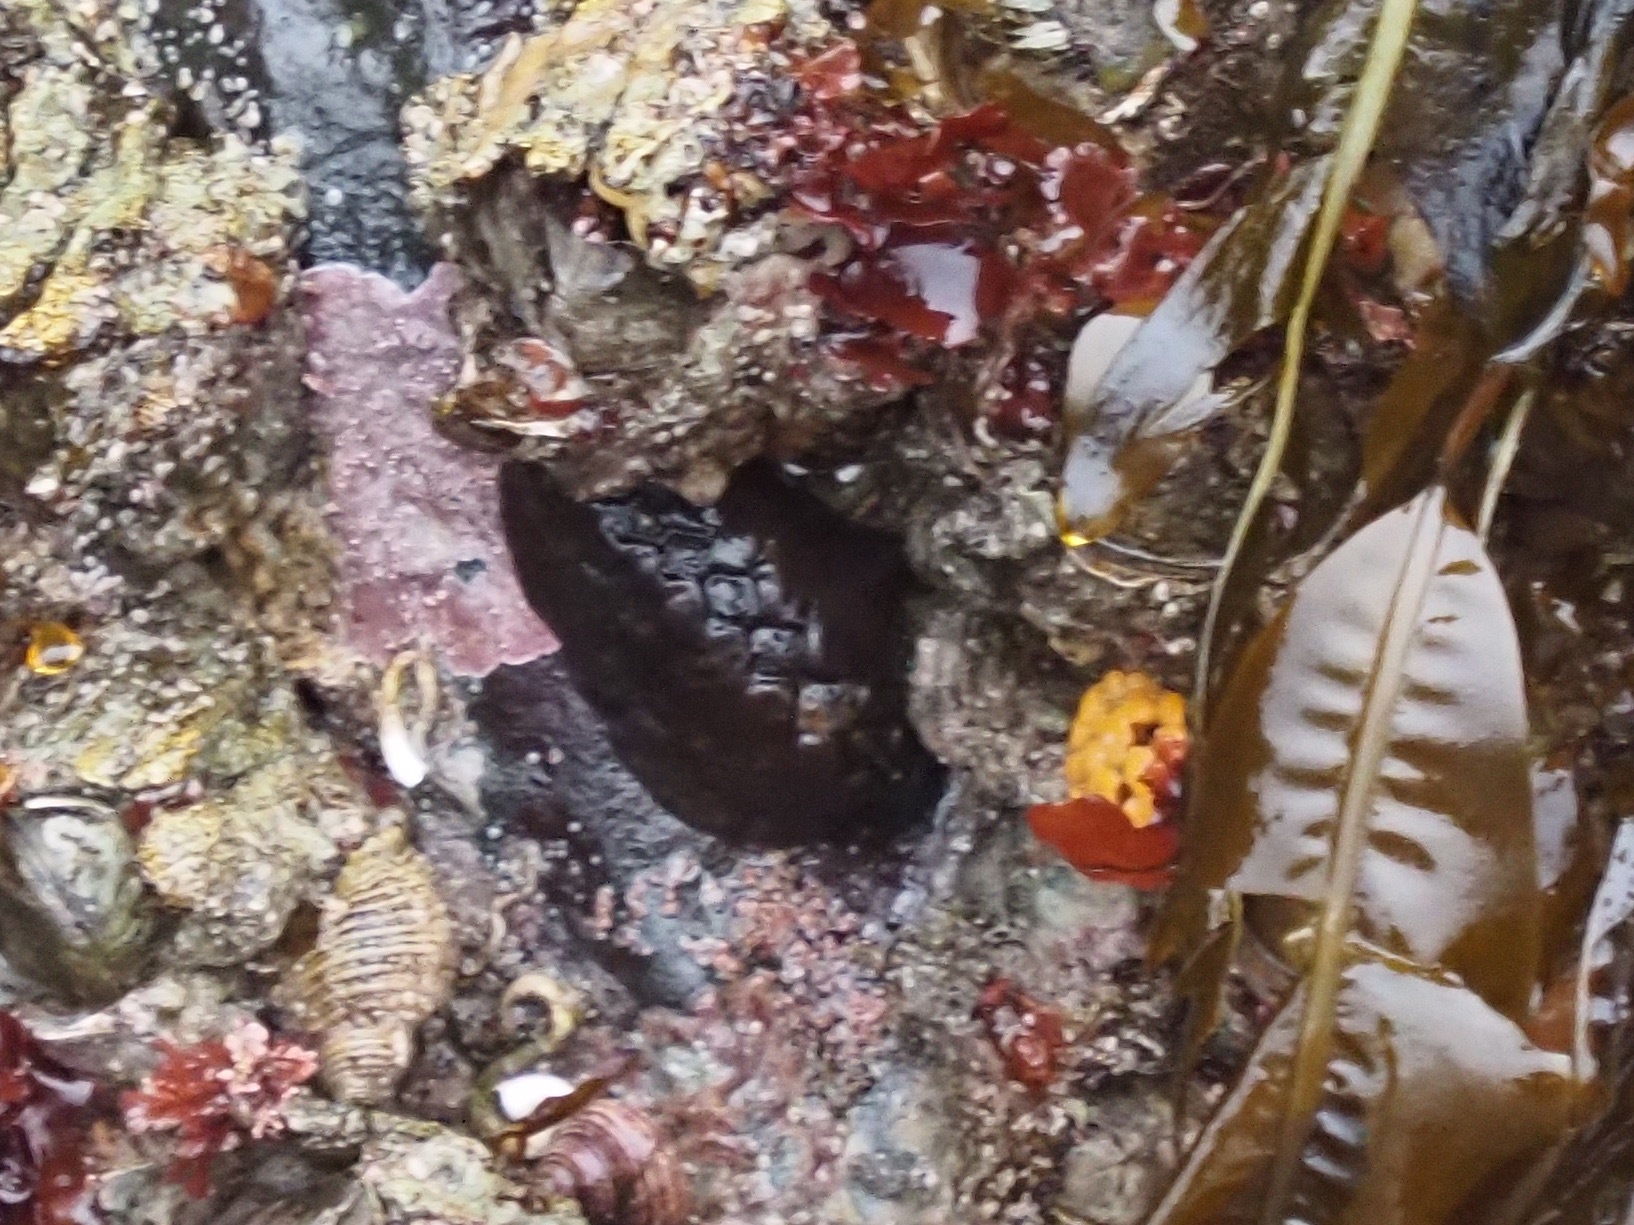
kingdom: Animalia
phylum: Mollusca
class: Polyplacophora
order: Chitonida
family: Mopaliidae
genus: Katharina
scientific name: Katharina tunicata
